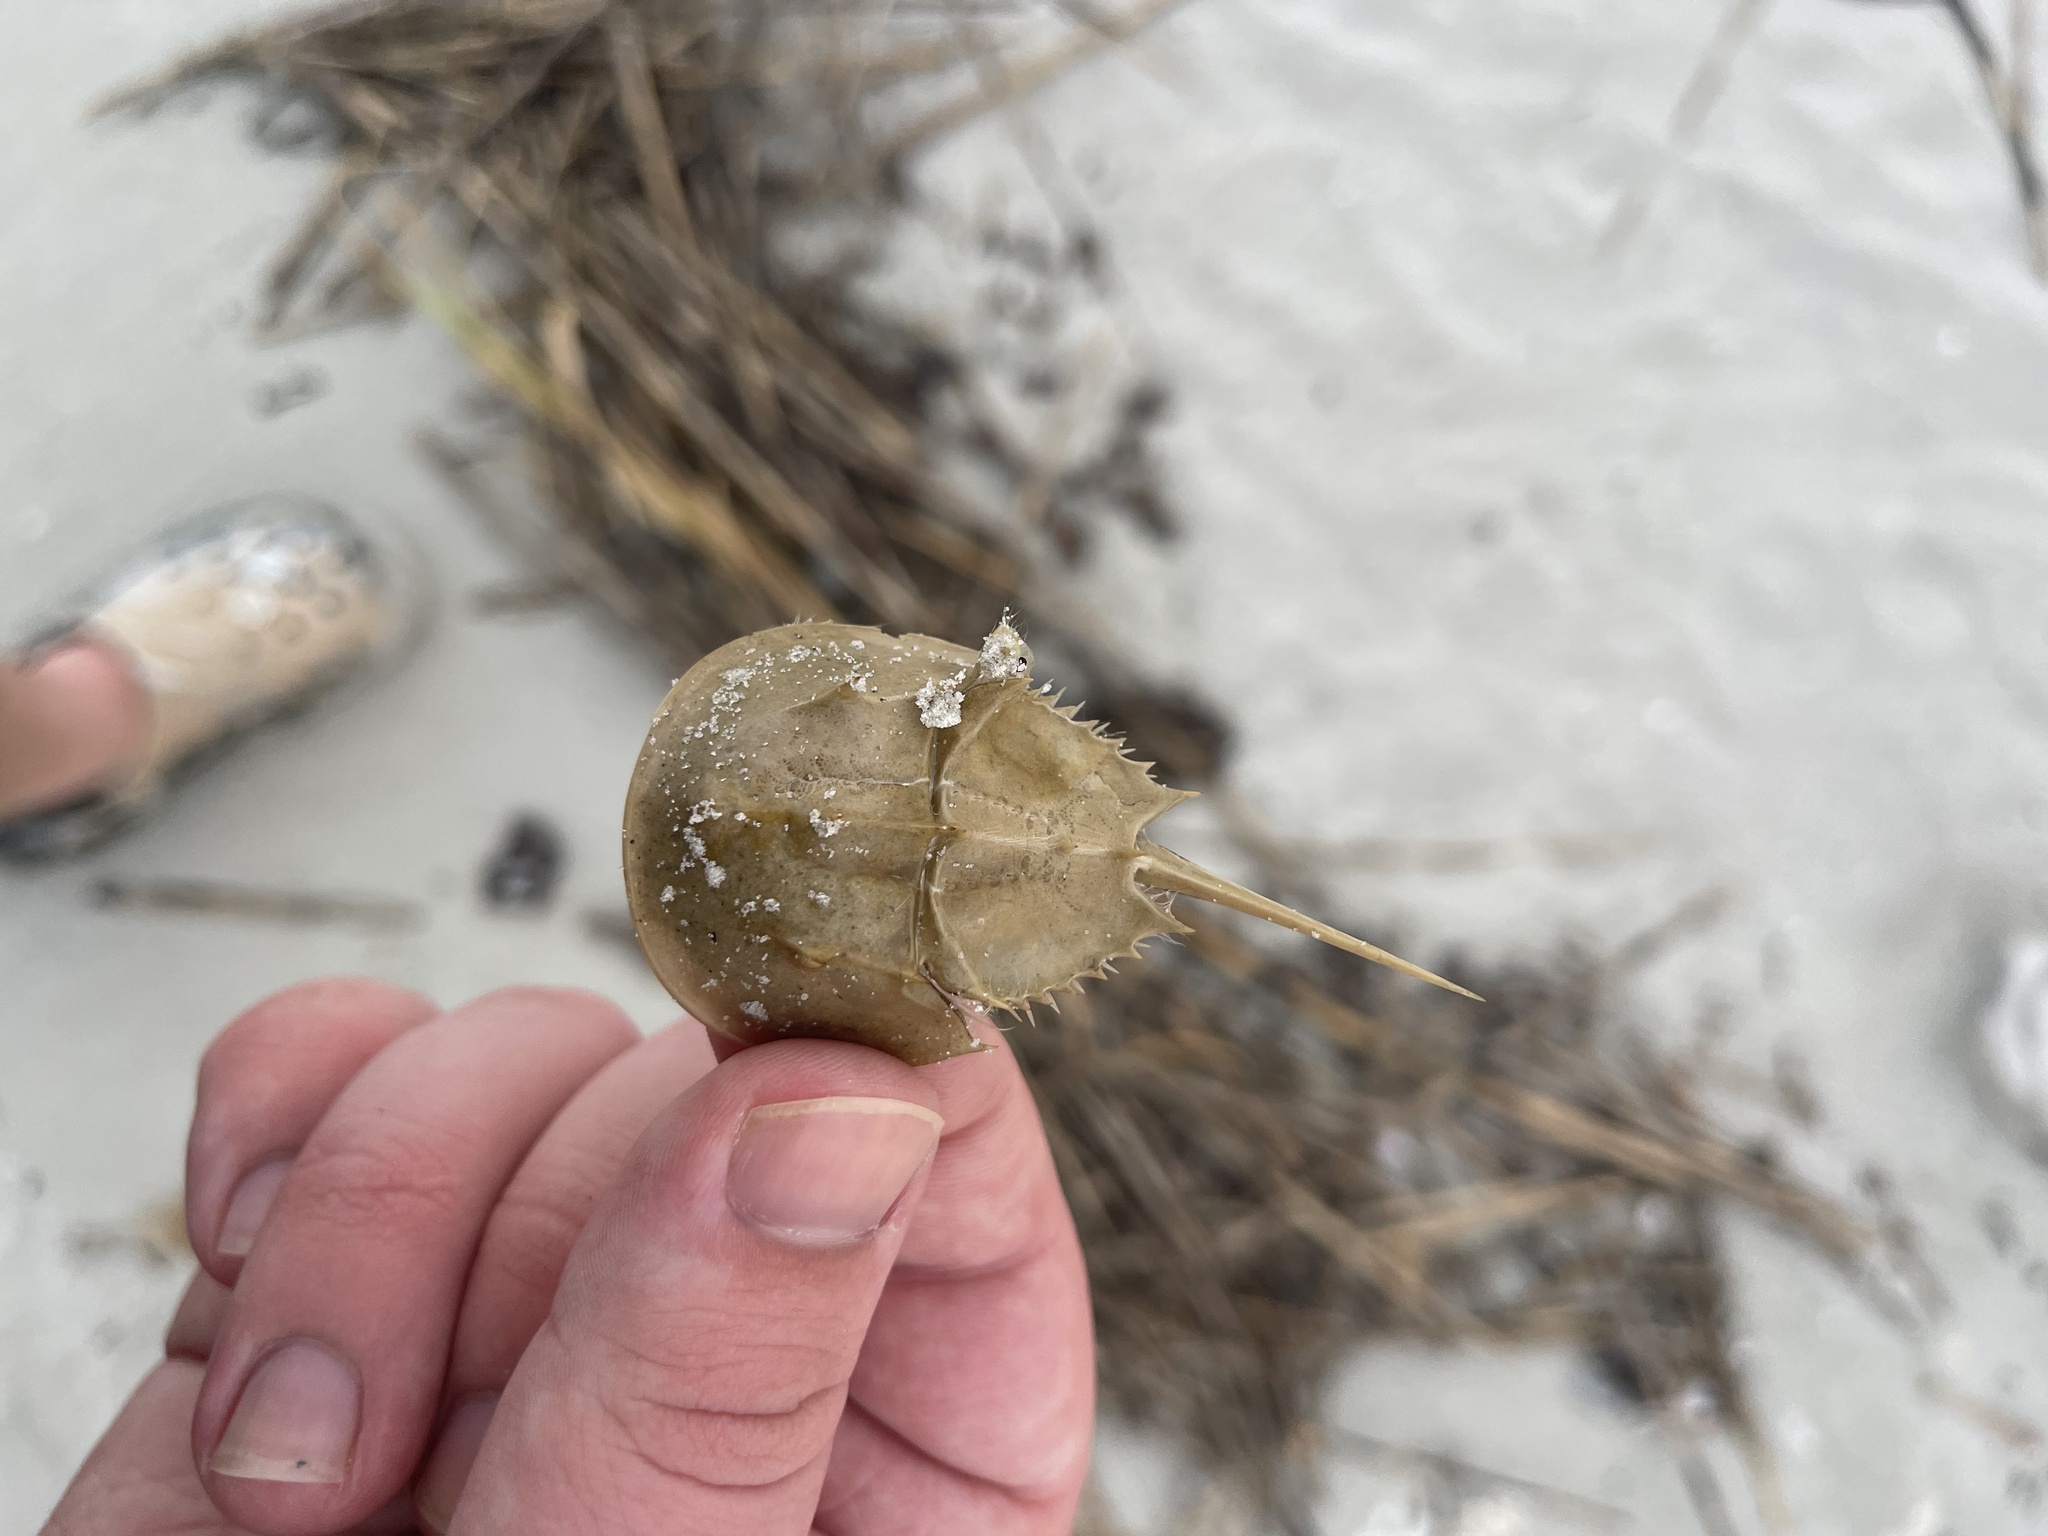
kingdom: Animalia
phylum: Arthropoda
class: Merostomata
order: Xiphosurida
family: Limulidae
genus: Limulus
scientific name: Limulus polyphemus
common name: Horseshoe crab
